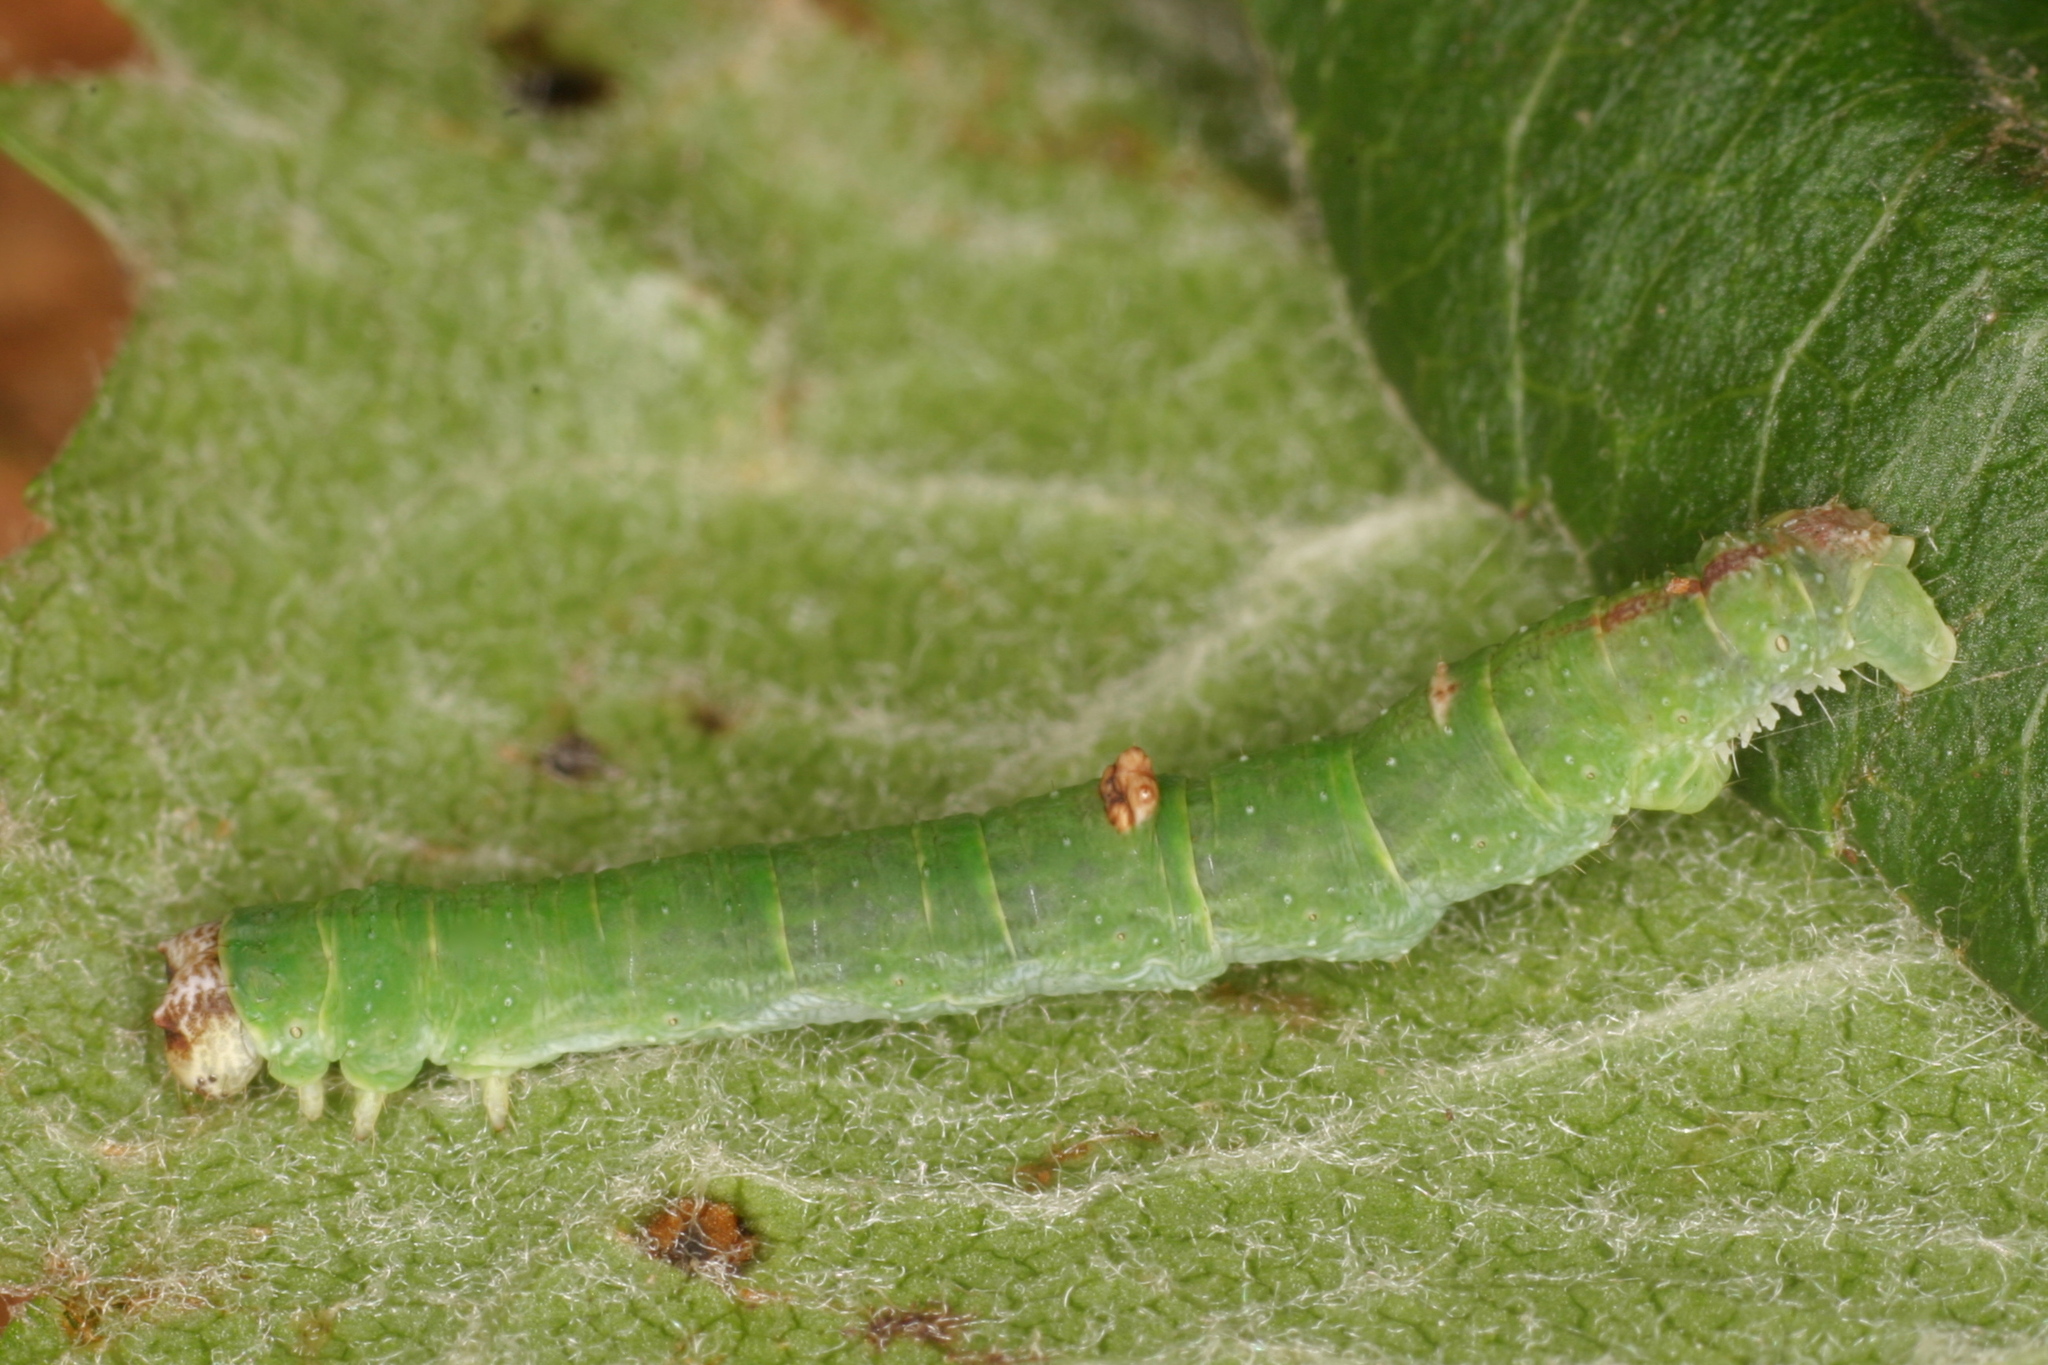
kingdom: Animalia
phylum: Arthropoda
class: Insecta
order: Lepidoptera
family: Geometridae
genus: Opisthograptis
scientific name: Opisthograptis luteolata
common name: Brimstone moth
